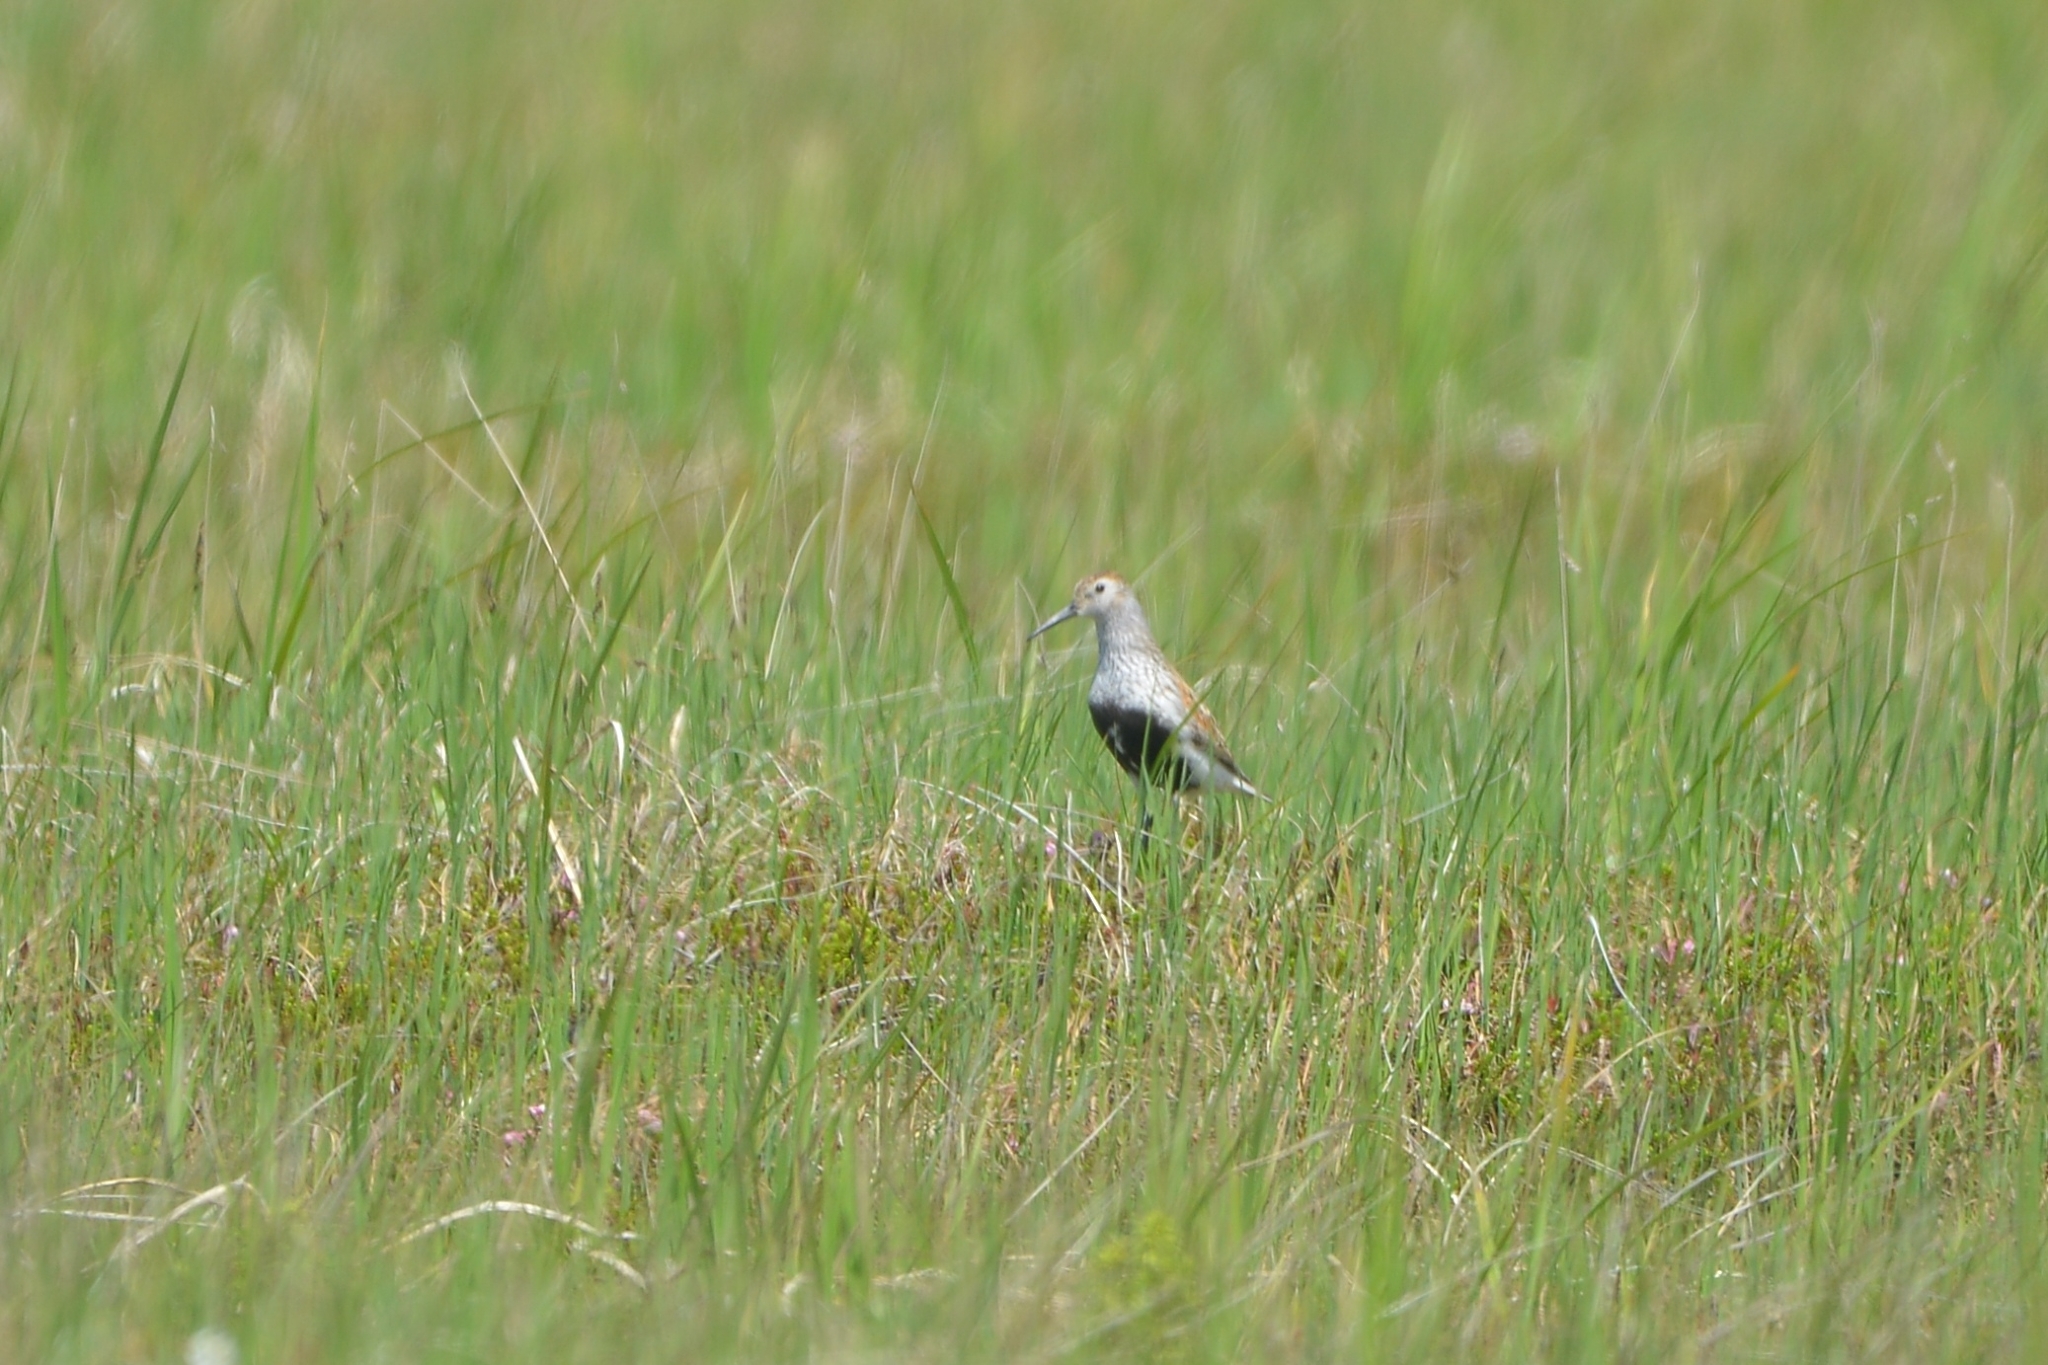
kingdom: Animalia
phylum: Chordata
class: Aves
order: Charadriiformes
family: Scolopacidae
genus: Calidris
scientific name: Calidris alpina
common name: Dunlin
